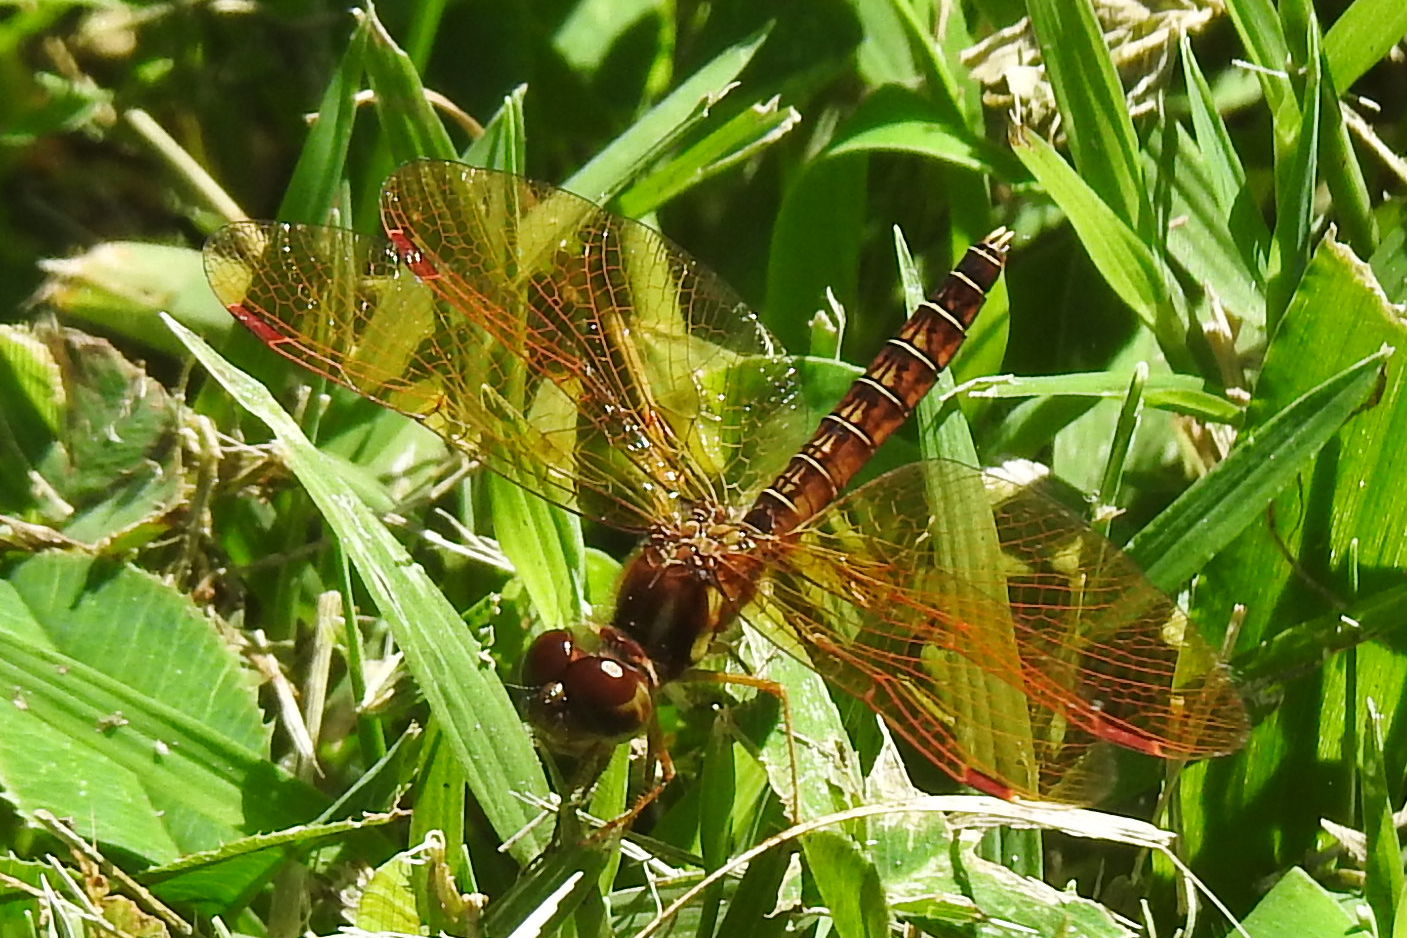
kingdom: Animalia
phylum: Arthropoda
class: Insecta
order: Odonata
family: Libellulidae
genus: Perithemis
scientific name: Perithemis tenera
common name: Eastern amberwing
